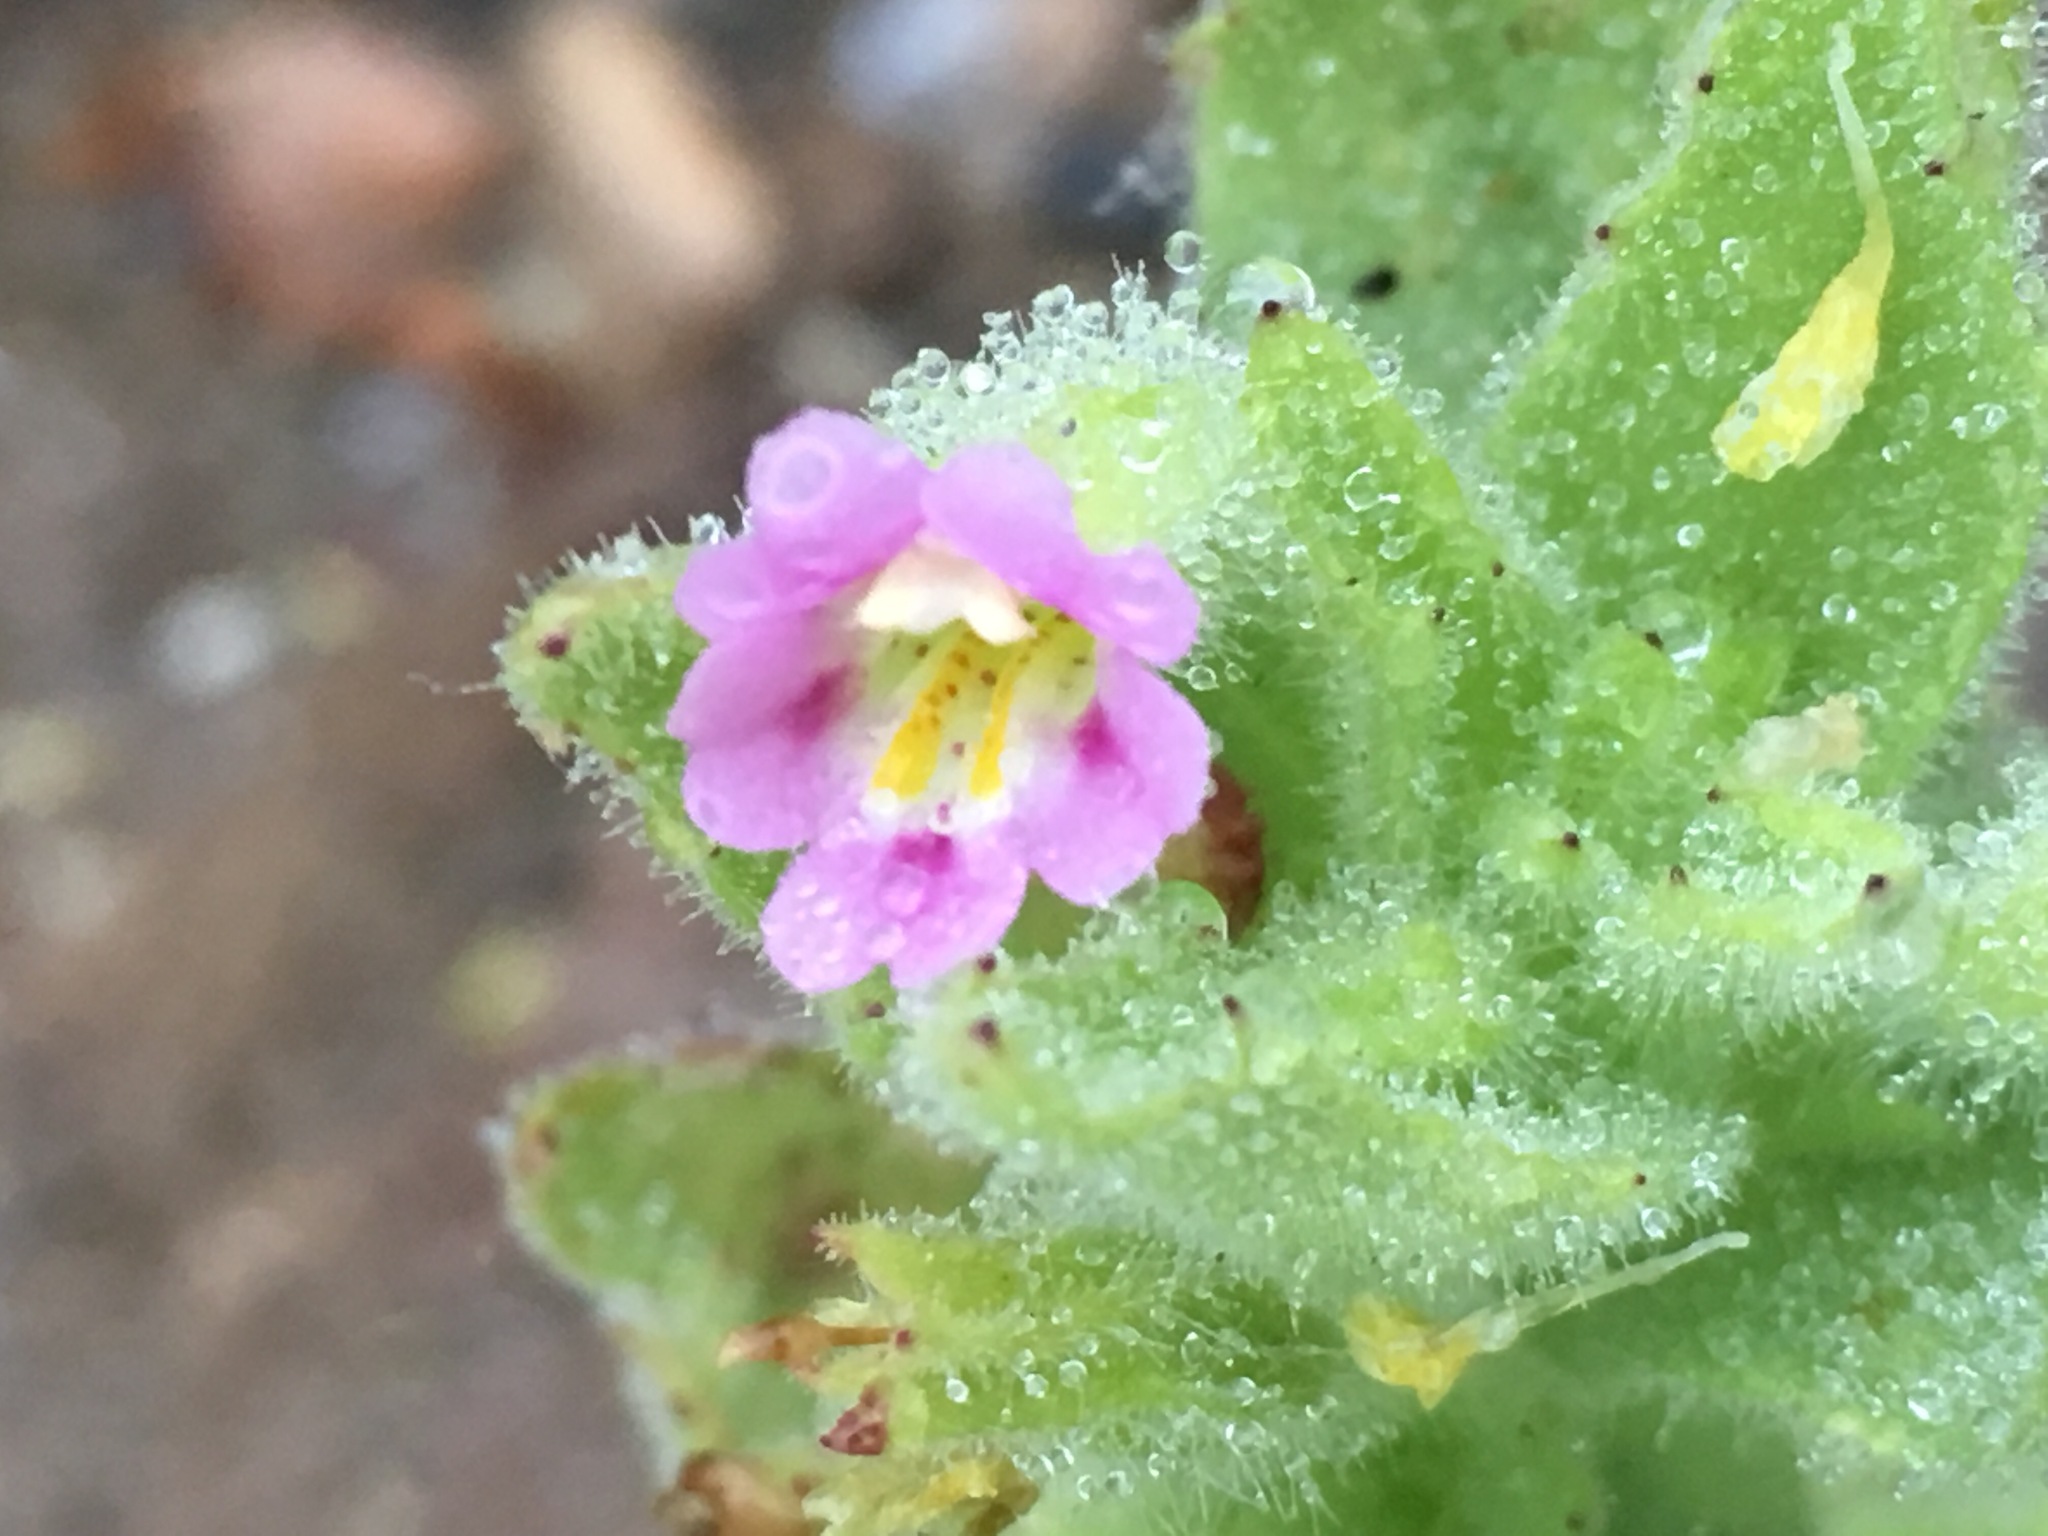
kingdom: Plantae
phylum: Tracheophyta
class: Magnoliopsida
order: Lamiales
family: Phrymaceae
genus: Erythranthe
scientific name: Erythranthe parishii
